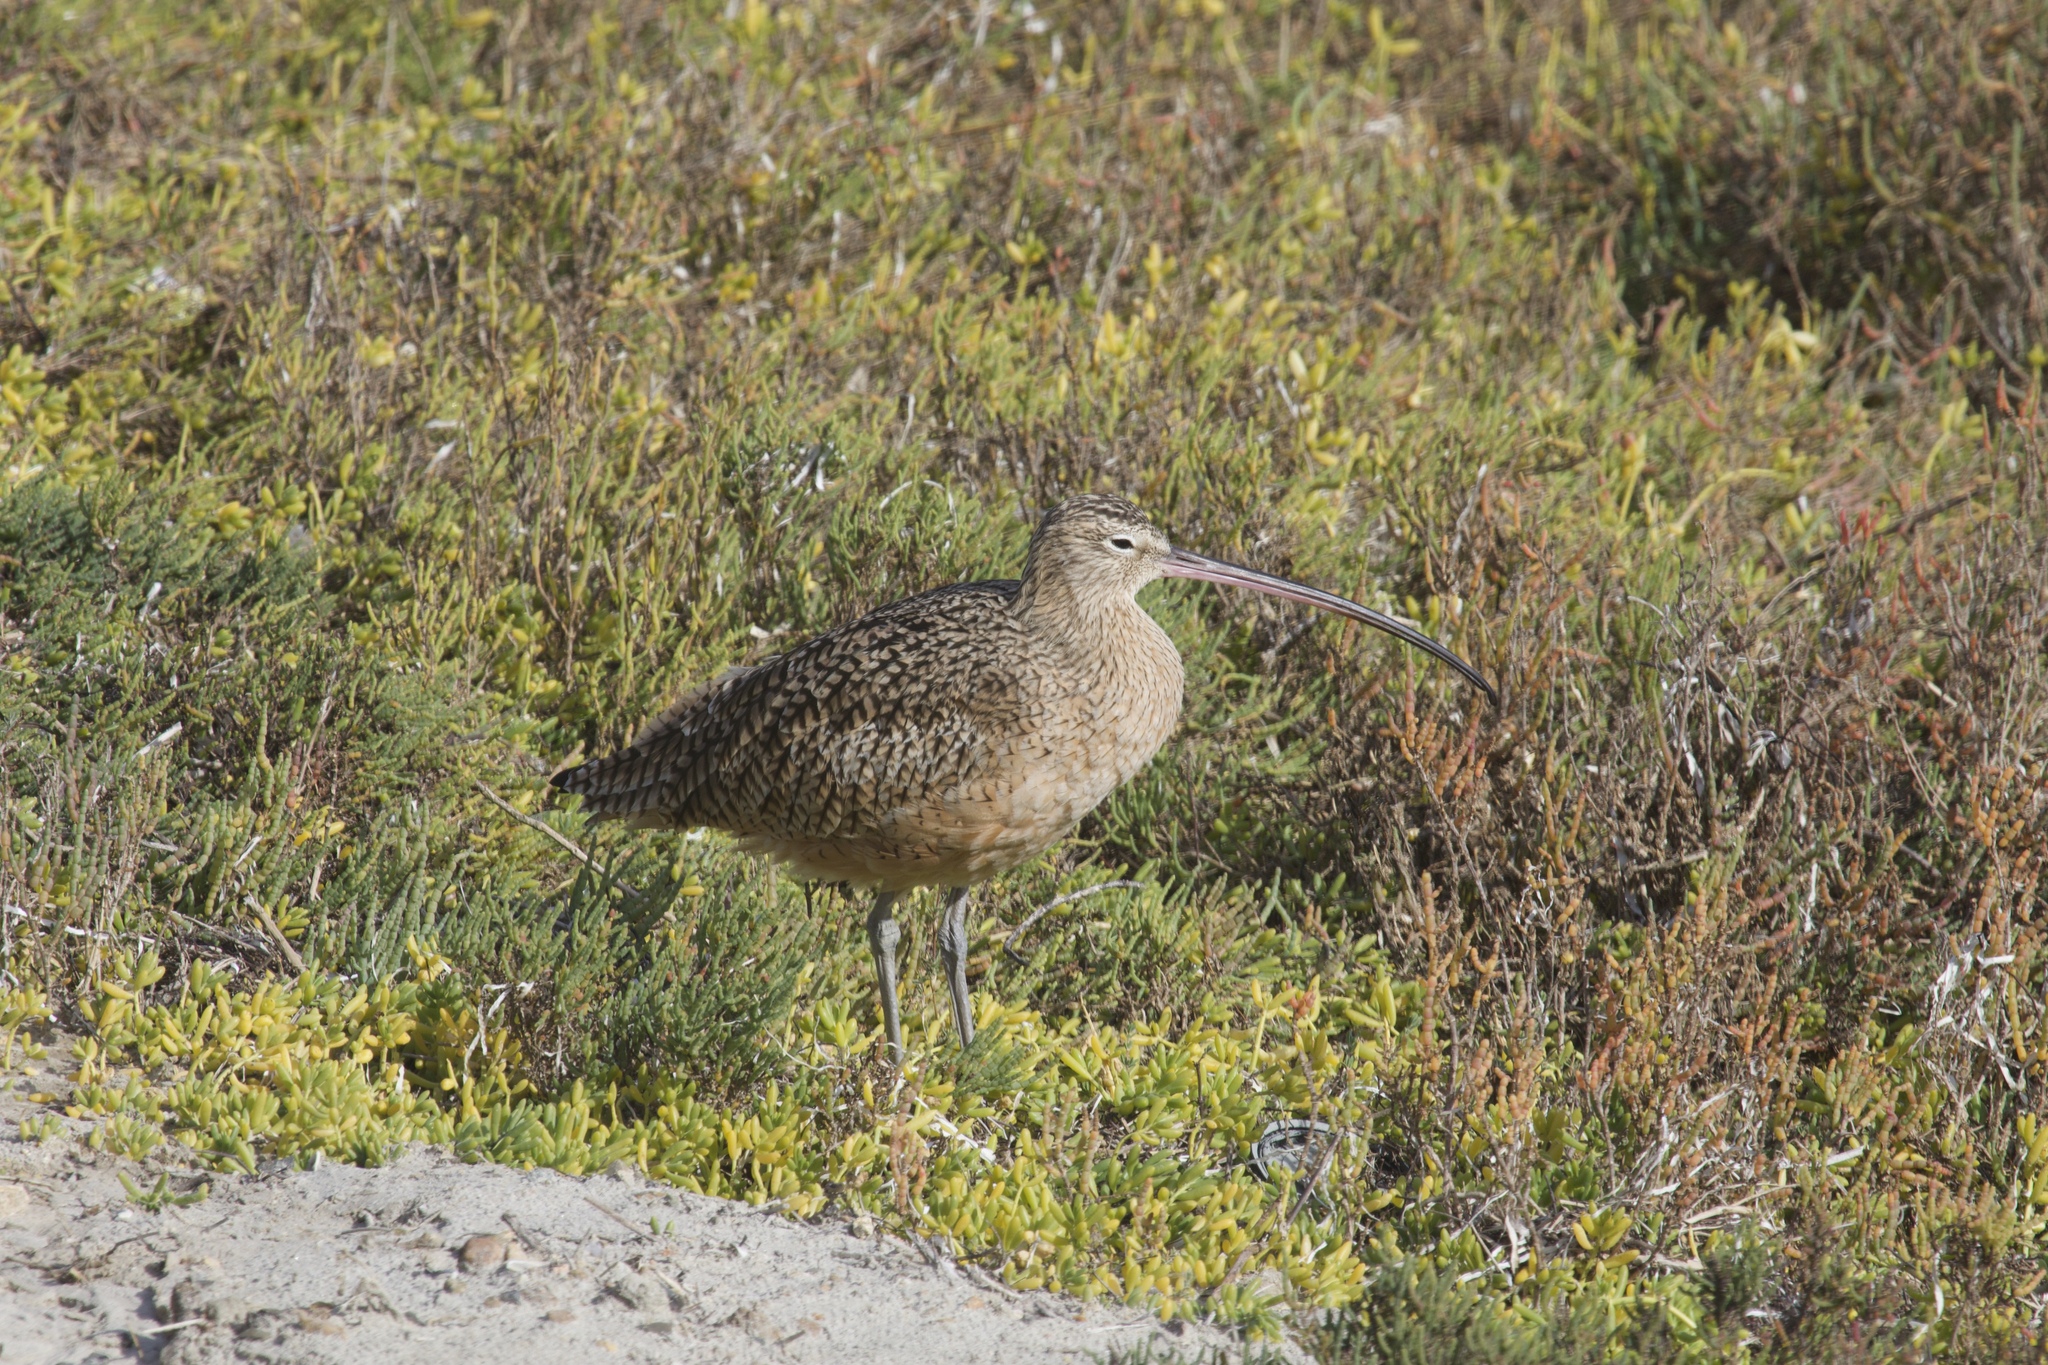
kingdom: Animalia
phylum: Chordata
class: Aves
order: Charadriiformes
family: Scolopacidae
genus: Numenius
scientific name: Numenius americanus
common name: Long-billed curlew
